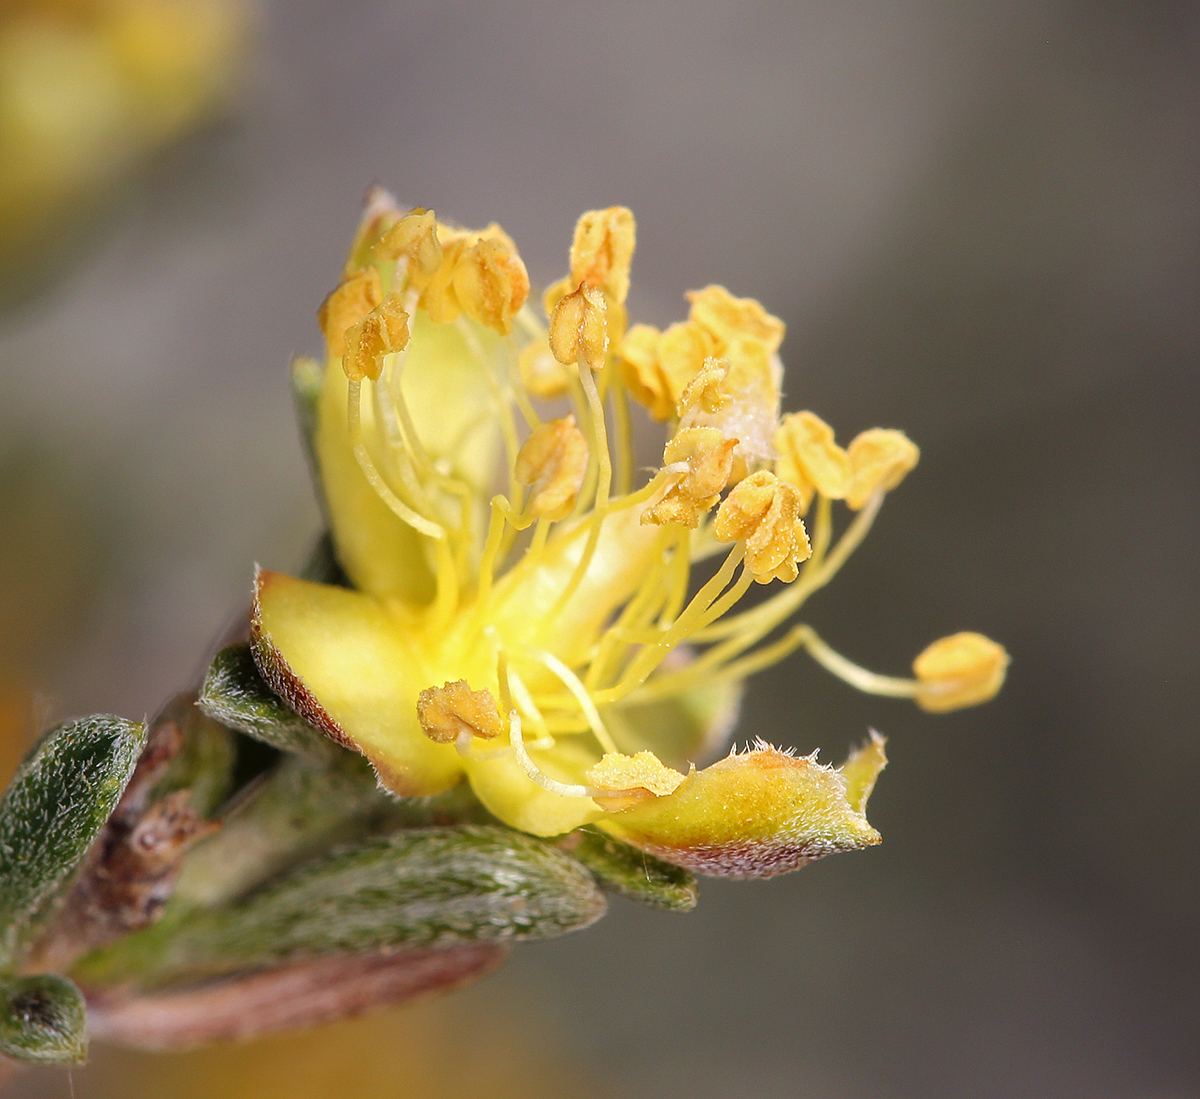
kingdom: Plantae
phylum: Tracheophyta
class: Magnoliopsida
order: Rosales
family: Rosaceae
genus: Coleogyne
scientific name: Coleogyne ramosissima
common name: Blackbrush
